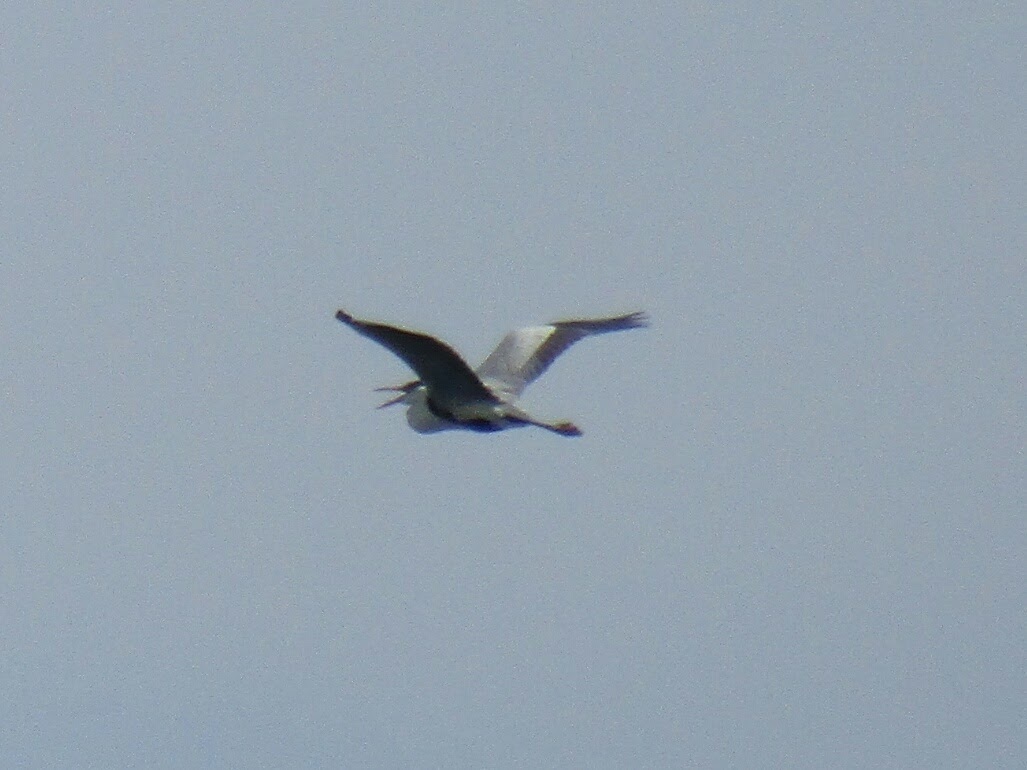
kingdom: Animalia
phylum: Chordata
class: Aves
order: Pelecaniformes
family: Ardeidae
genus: Ardea
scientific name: Ardea cocoi
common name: Cocoi heron
